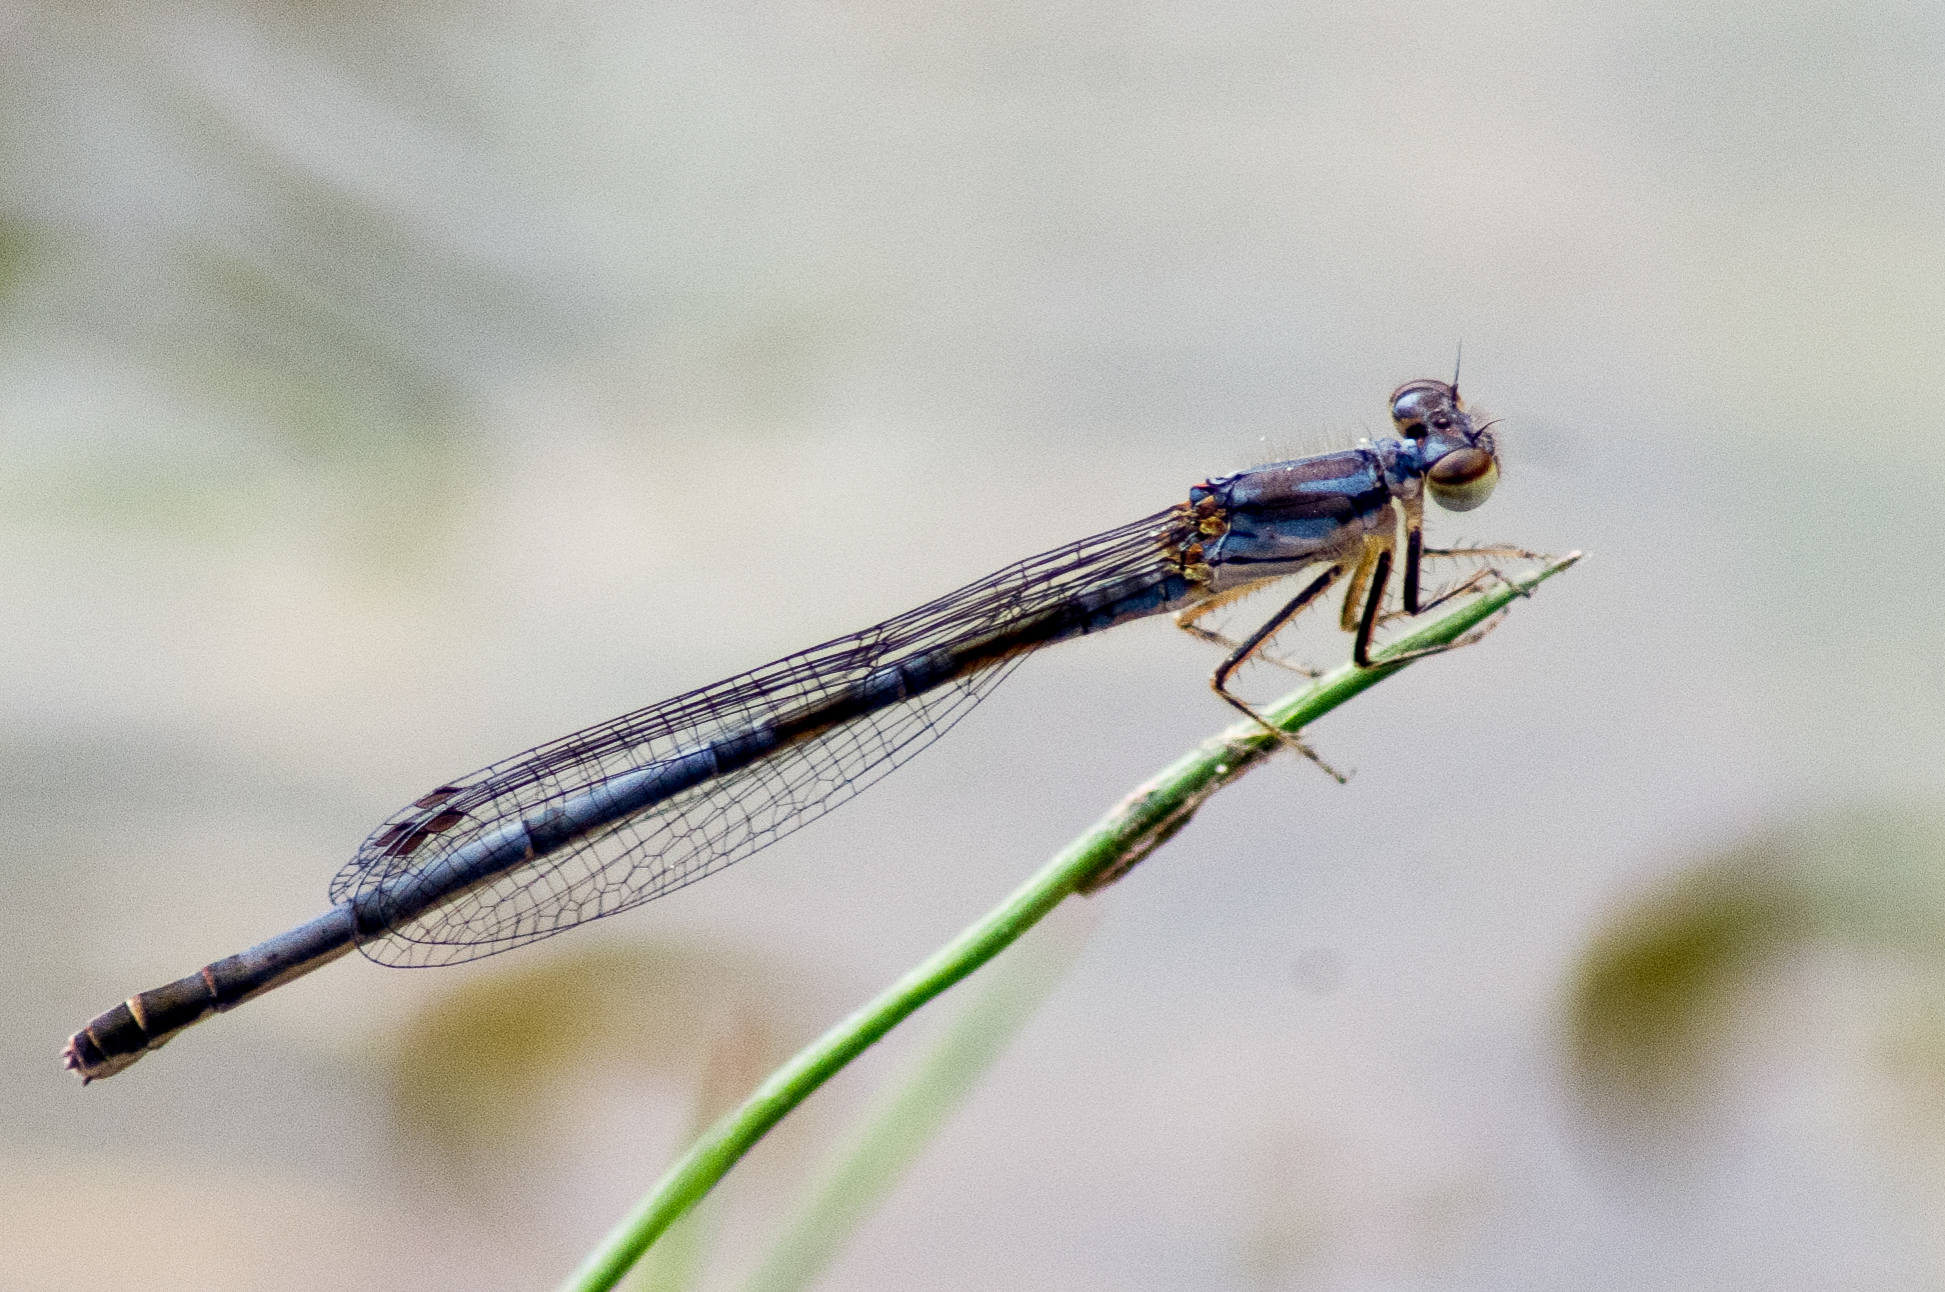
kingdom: Animalia
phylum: Arthropoda
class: Insecta
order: Odonata
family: Coenagrionidae
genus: Ischnura
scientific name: Ischnura posita
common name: Fragile forktail
